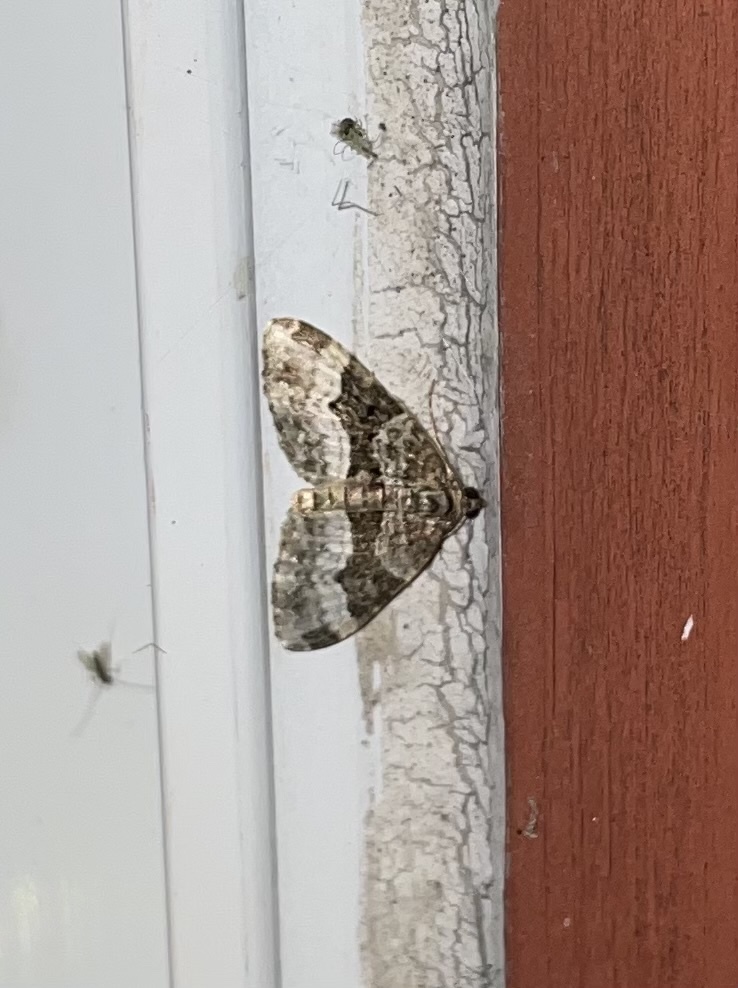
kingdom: Animalia
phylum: Arthropoda
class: Insecta
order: Lepidoptera
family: Geometridae
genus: Xanthorhoe
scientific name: Xanthorhoe lacustrata
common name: Toothed brown carpet
